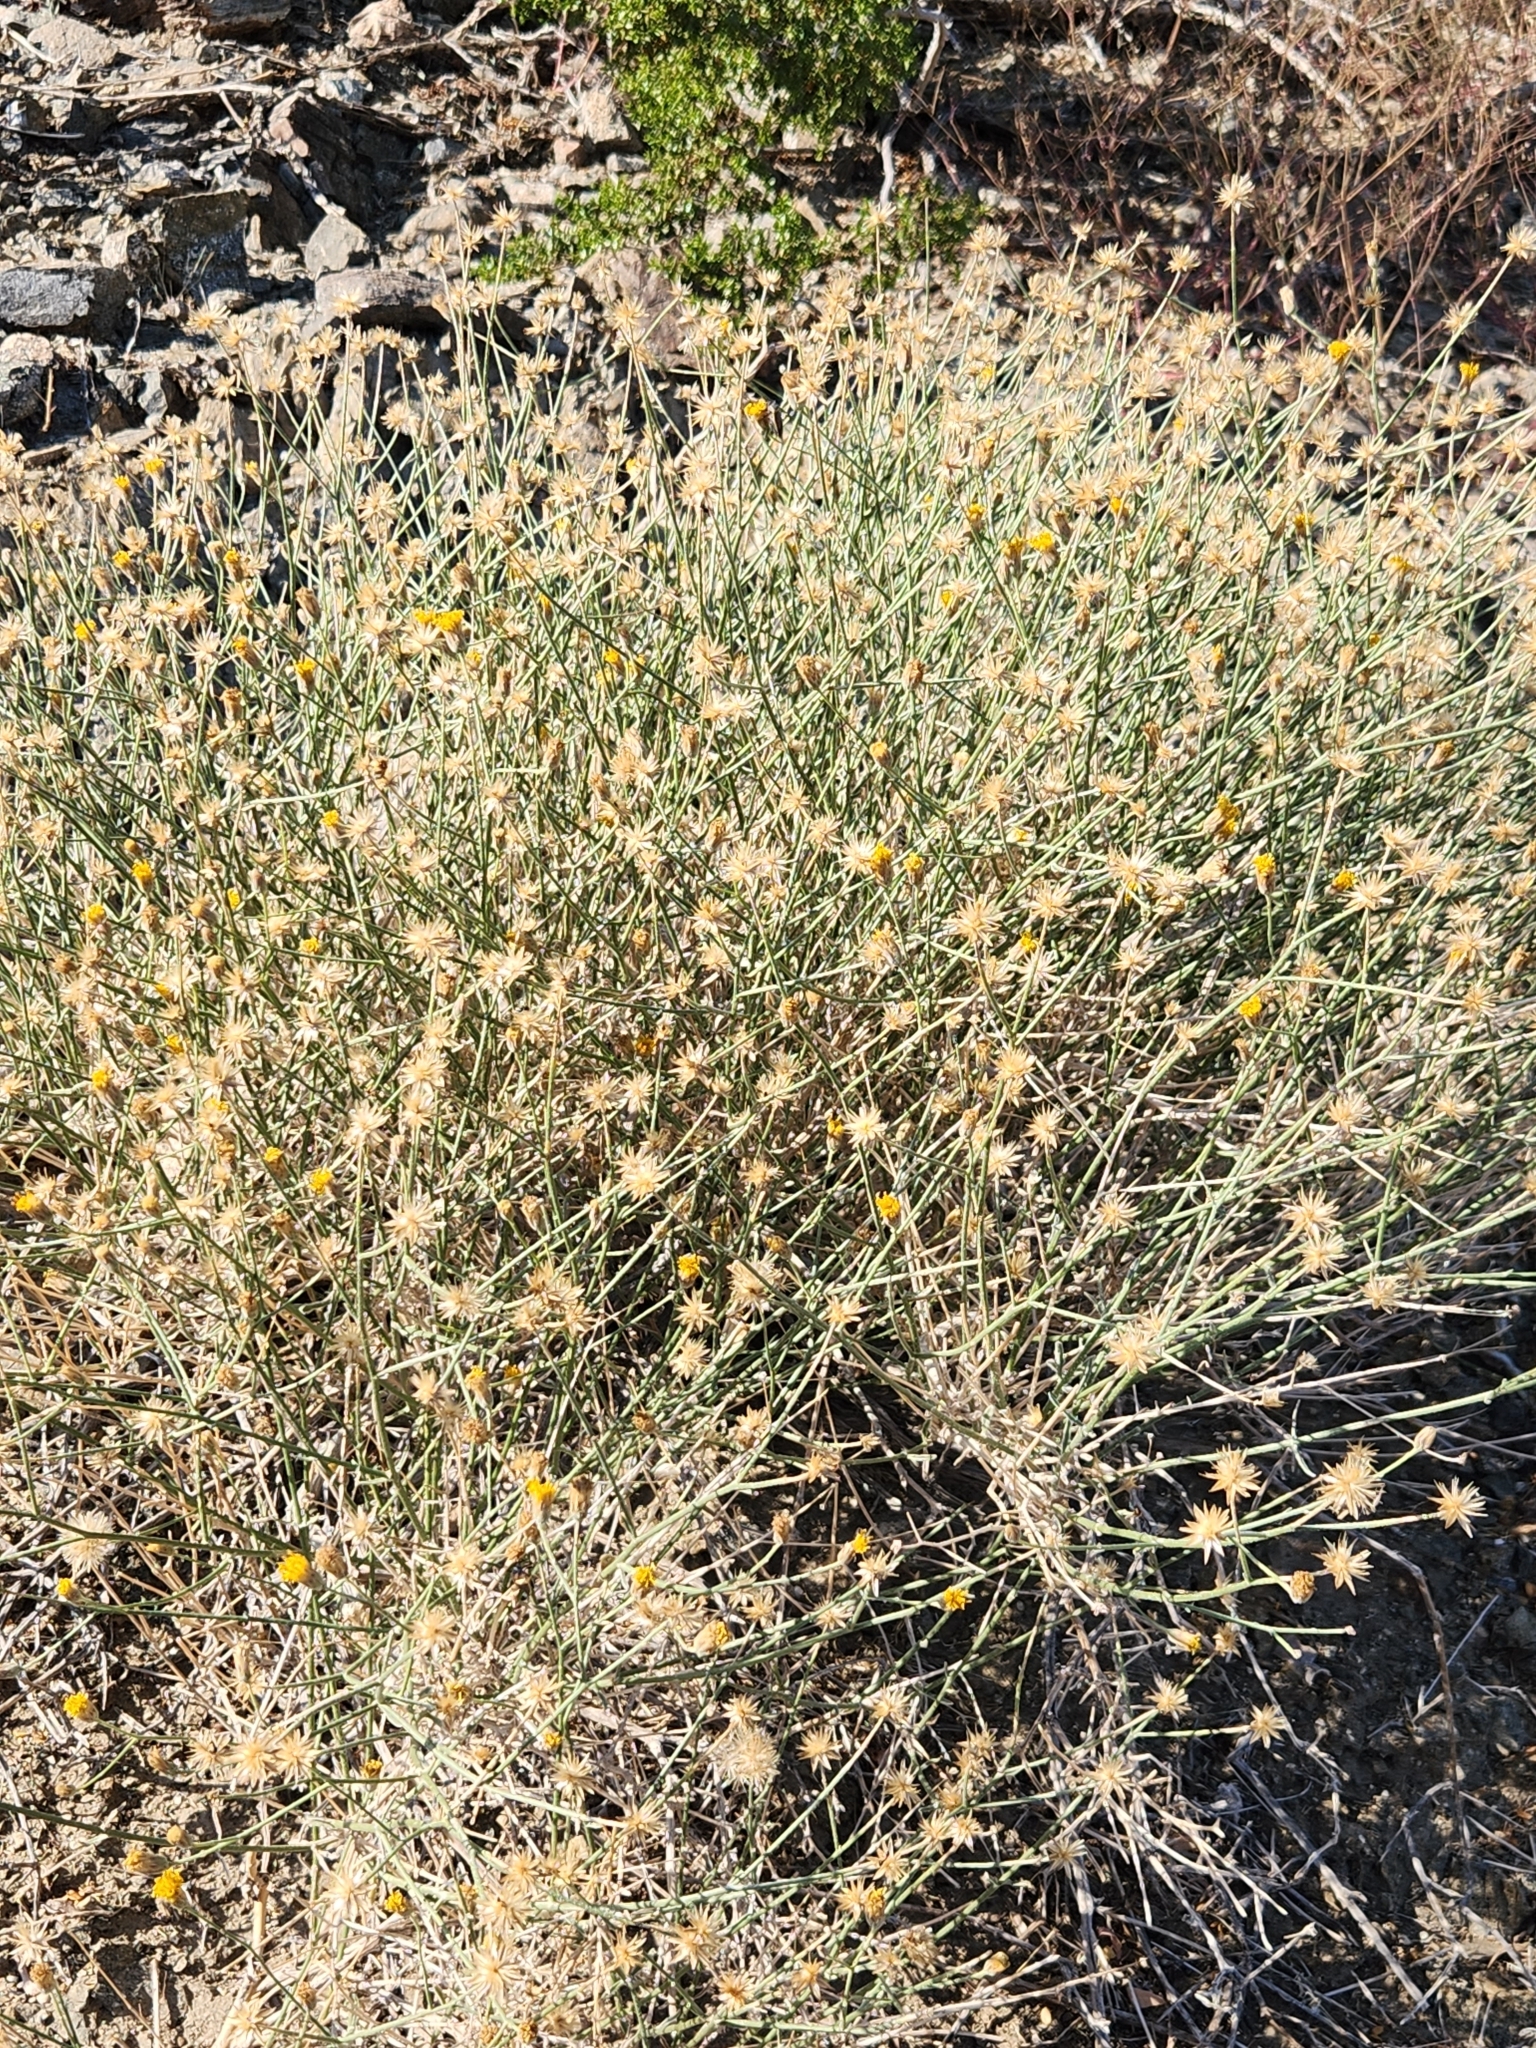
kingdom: Plantae
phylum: Tracheophyta
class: Magnoliopsida
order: Asterales
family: Asteraceae
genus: Bebbia
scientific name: Bebbia juncea
